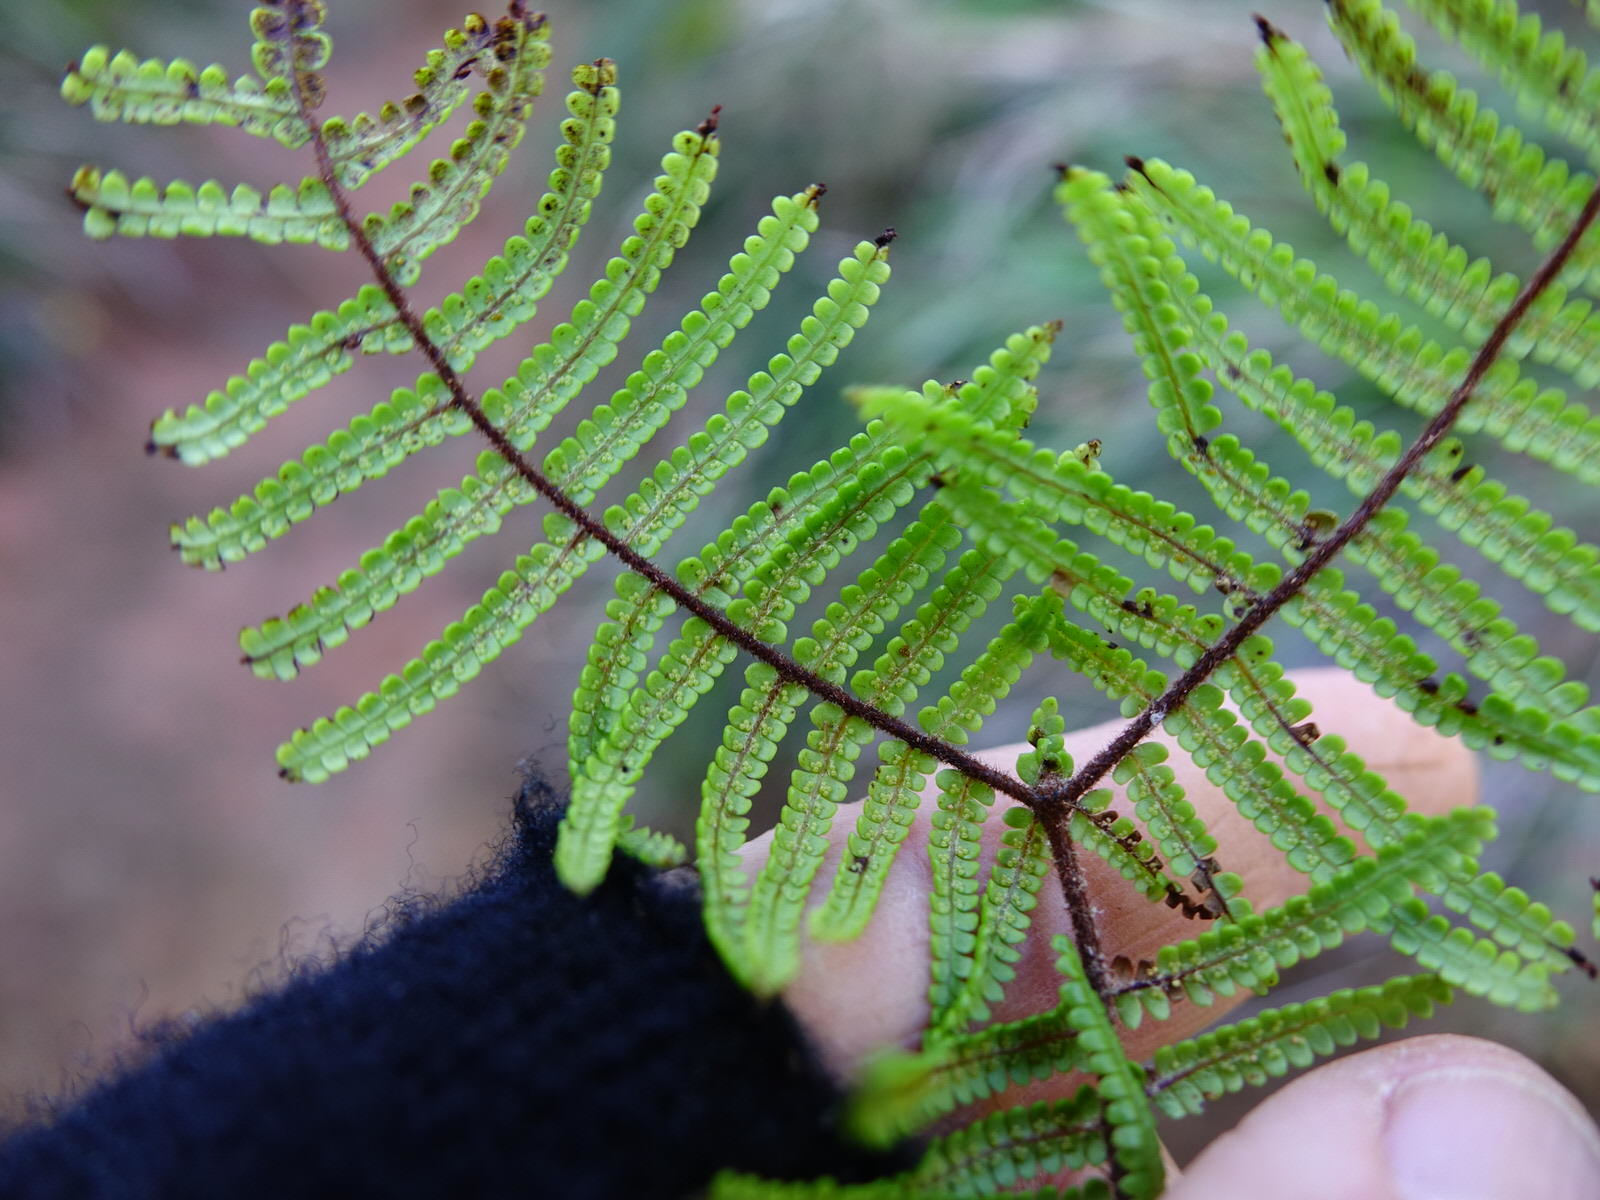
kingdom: Plantae
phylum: Tracheophyta
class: Polypodiopsida
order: Gleicheniales
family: Gleicheniaceae
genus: Gleichenia
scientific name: Gleichenia microphylla
